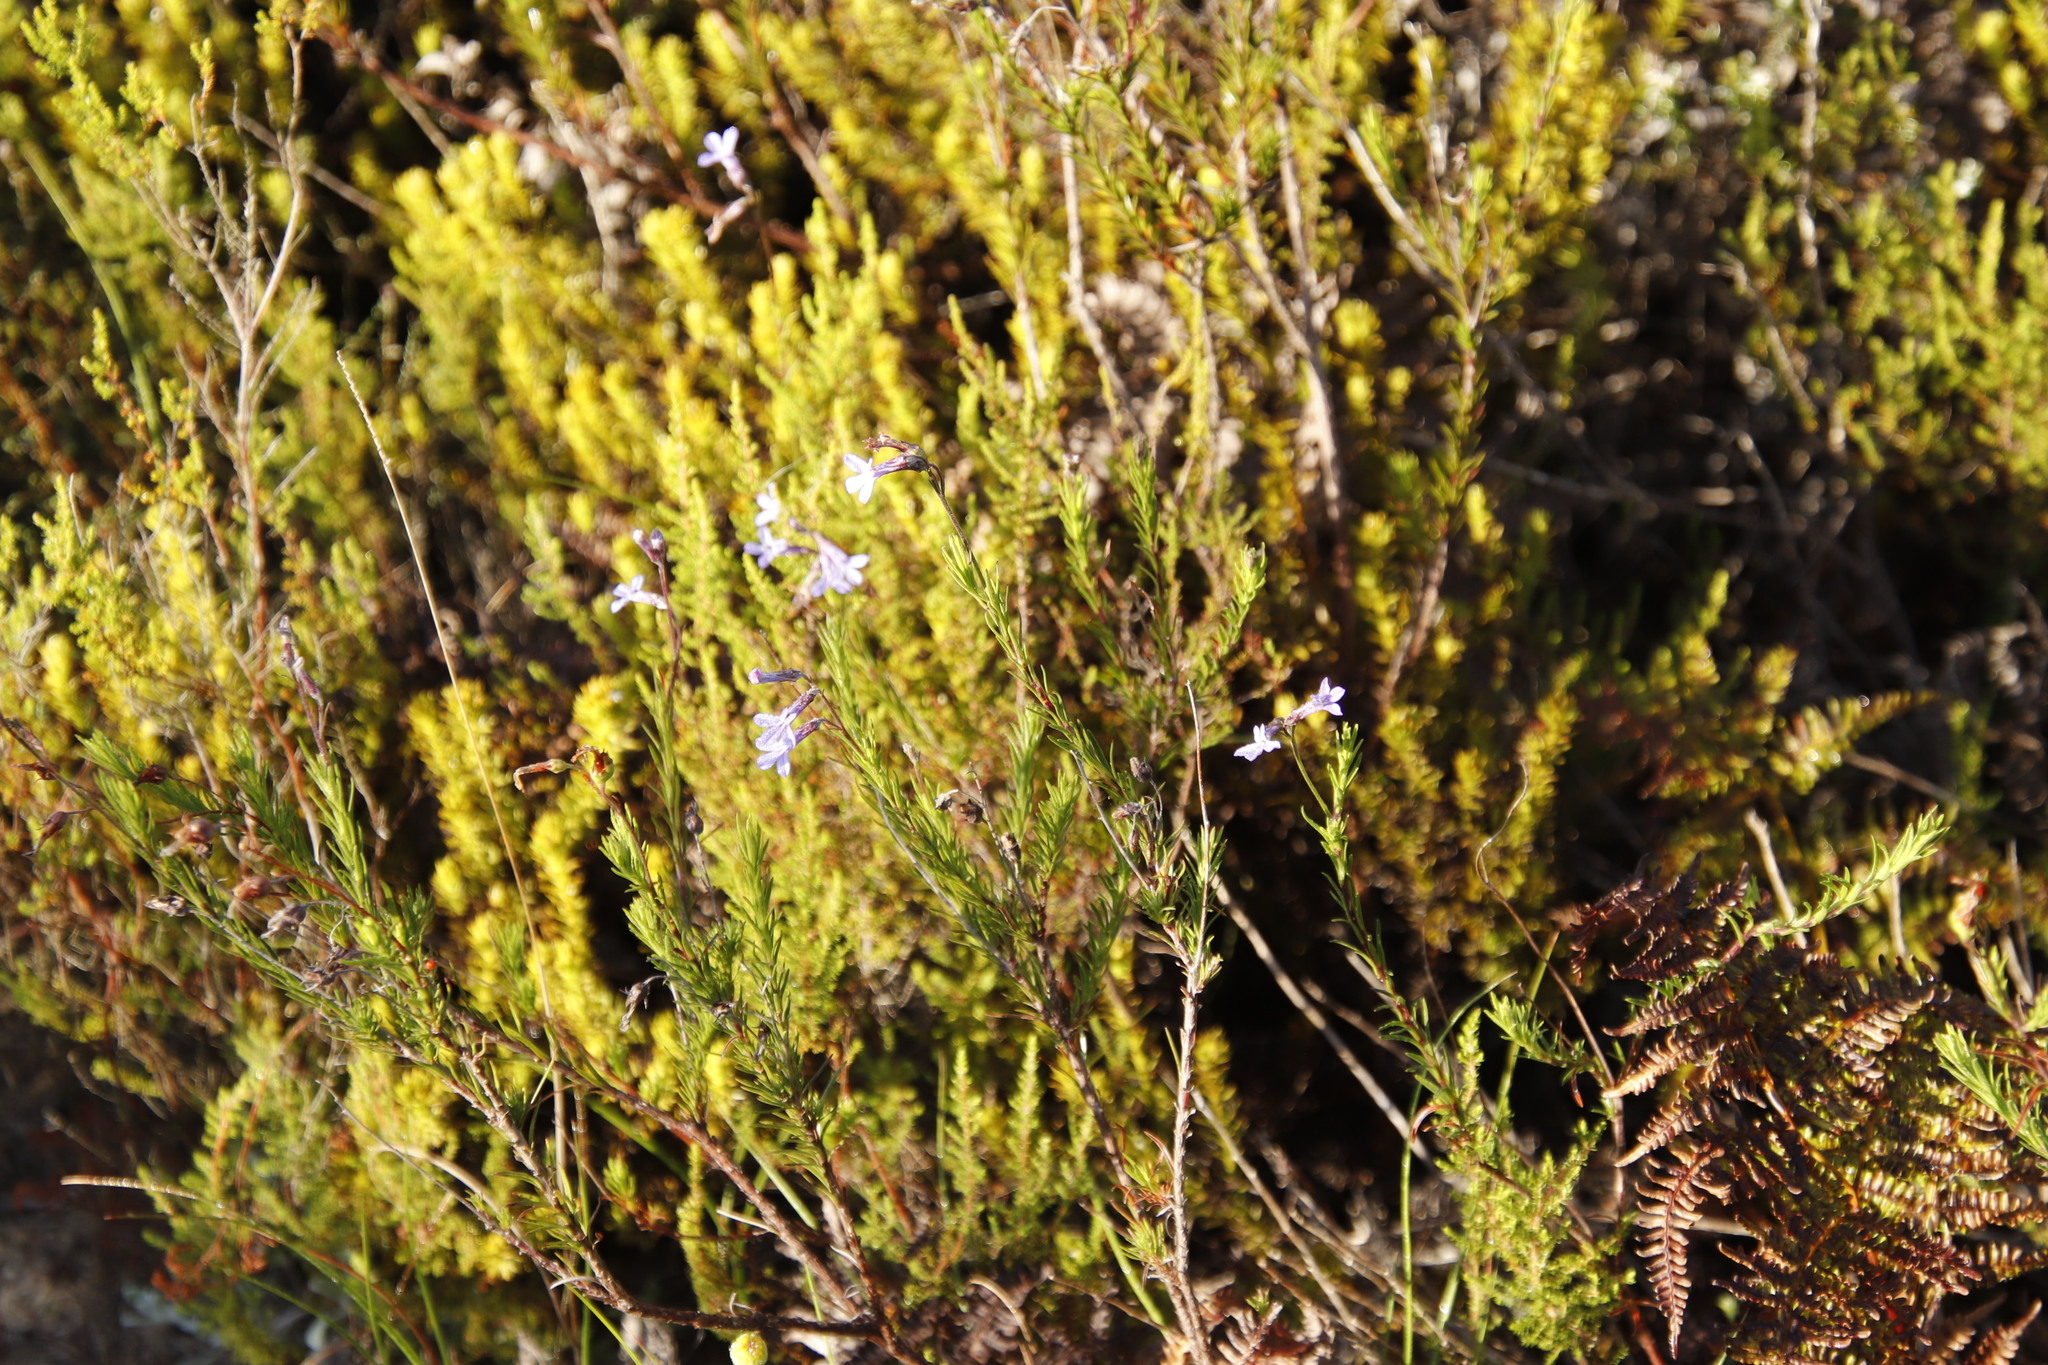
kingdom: Plantae
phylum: Tracheophyta
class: Magnoliopsida
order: Asterales
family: Campanulaceae
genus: Lobelia
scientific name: Lobelia pinifolia
